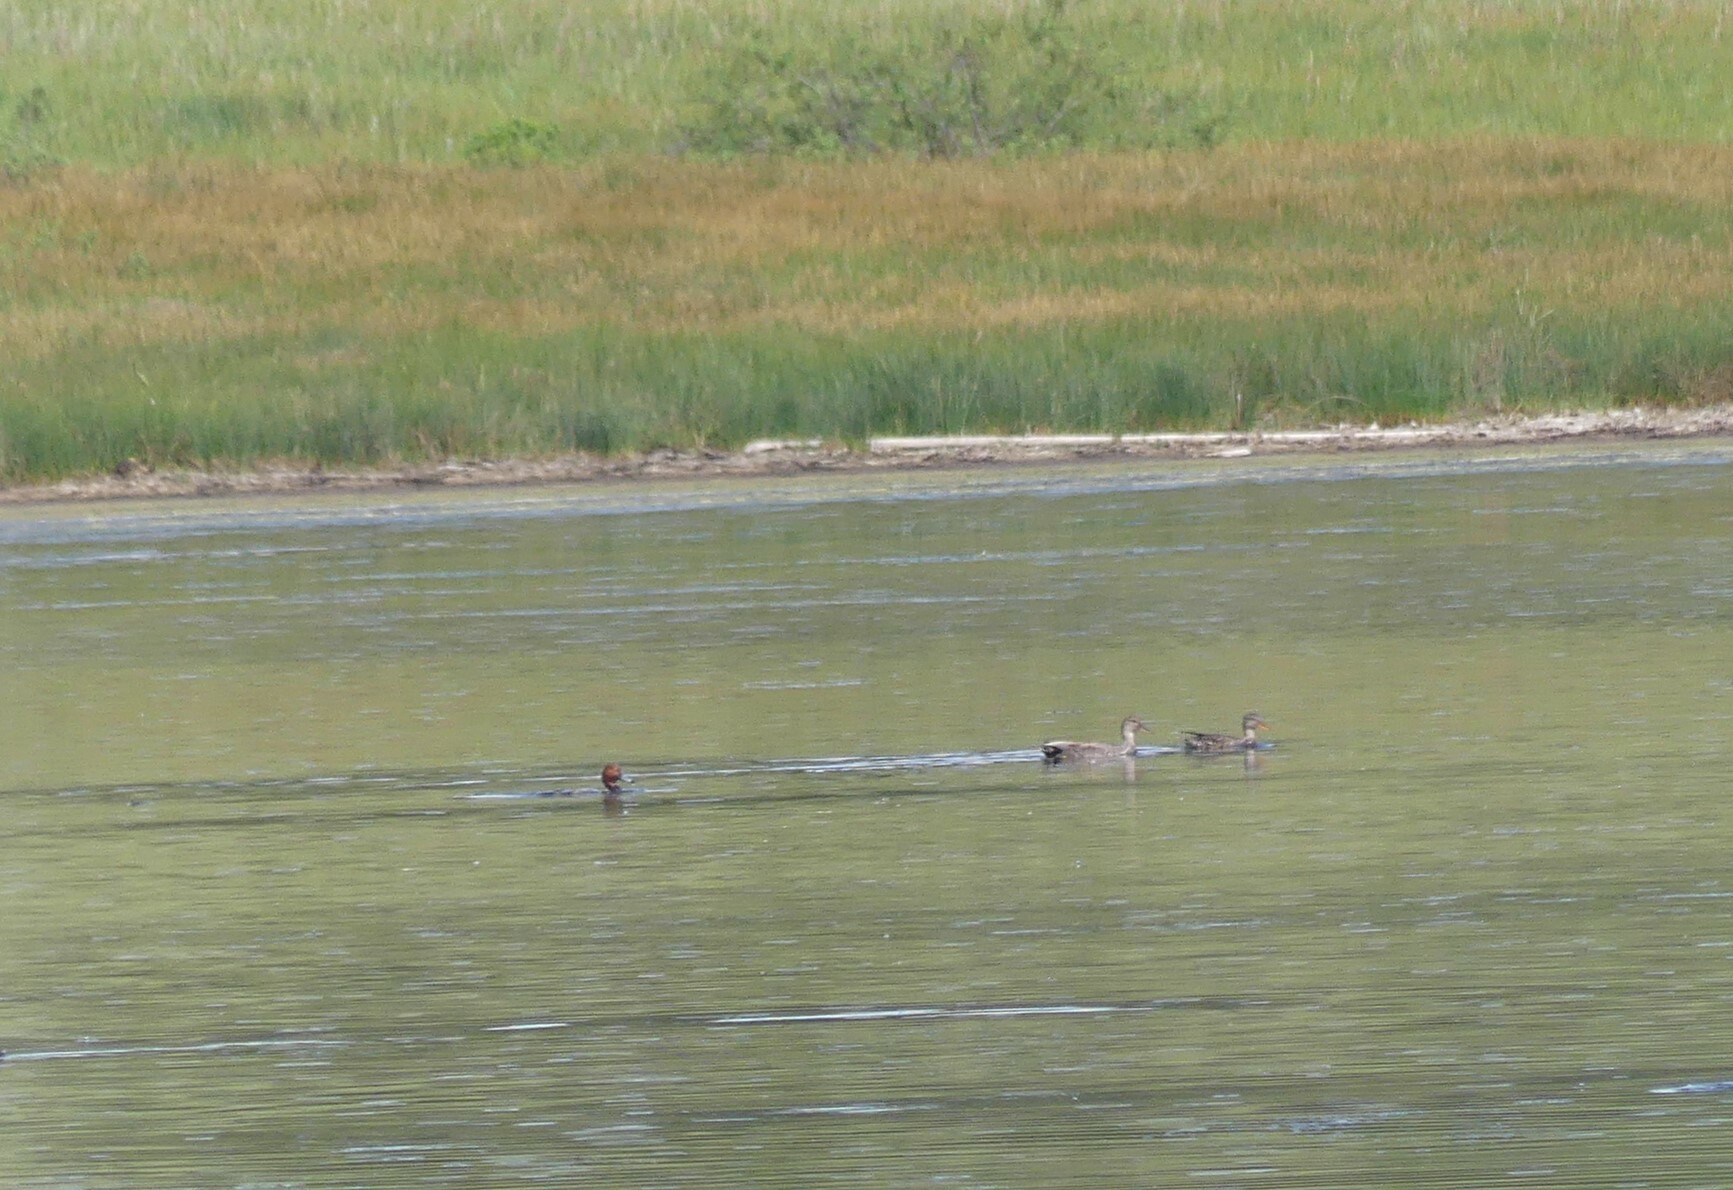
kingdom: Animalia
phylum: Chordata
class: Aves
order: Anseriformes
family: Anatidae
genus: Aythya
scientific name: Aythya americana
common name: Redhead
